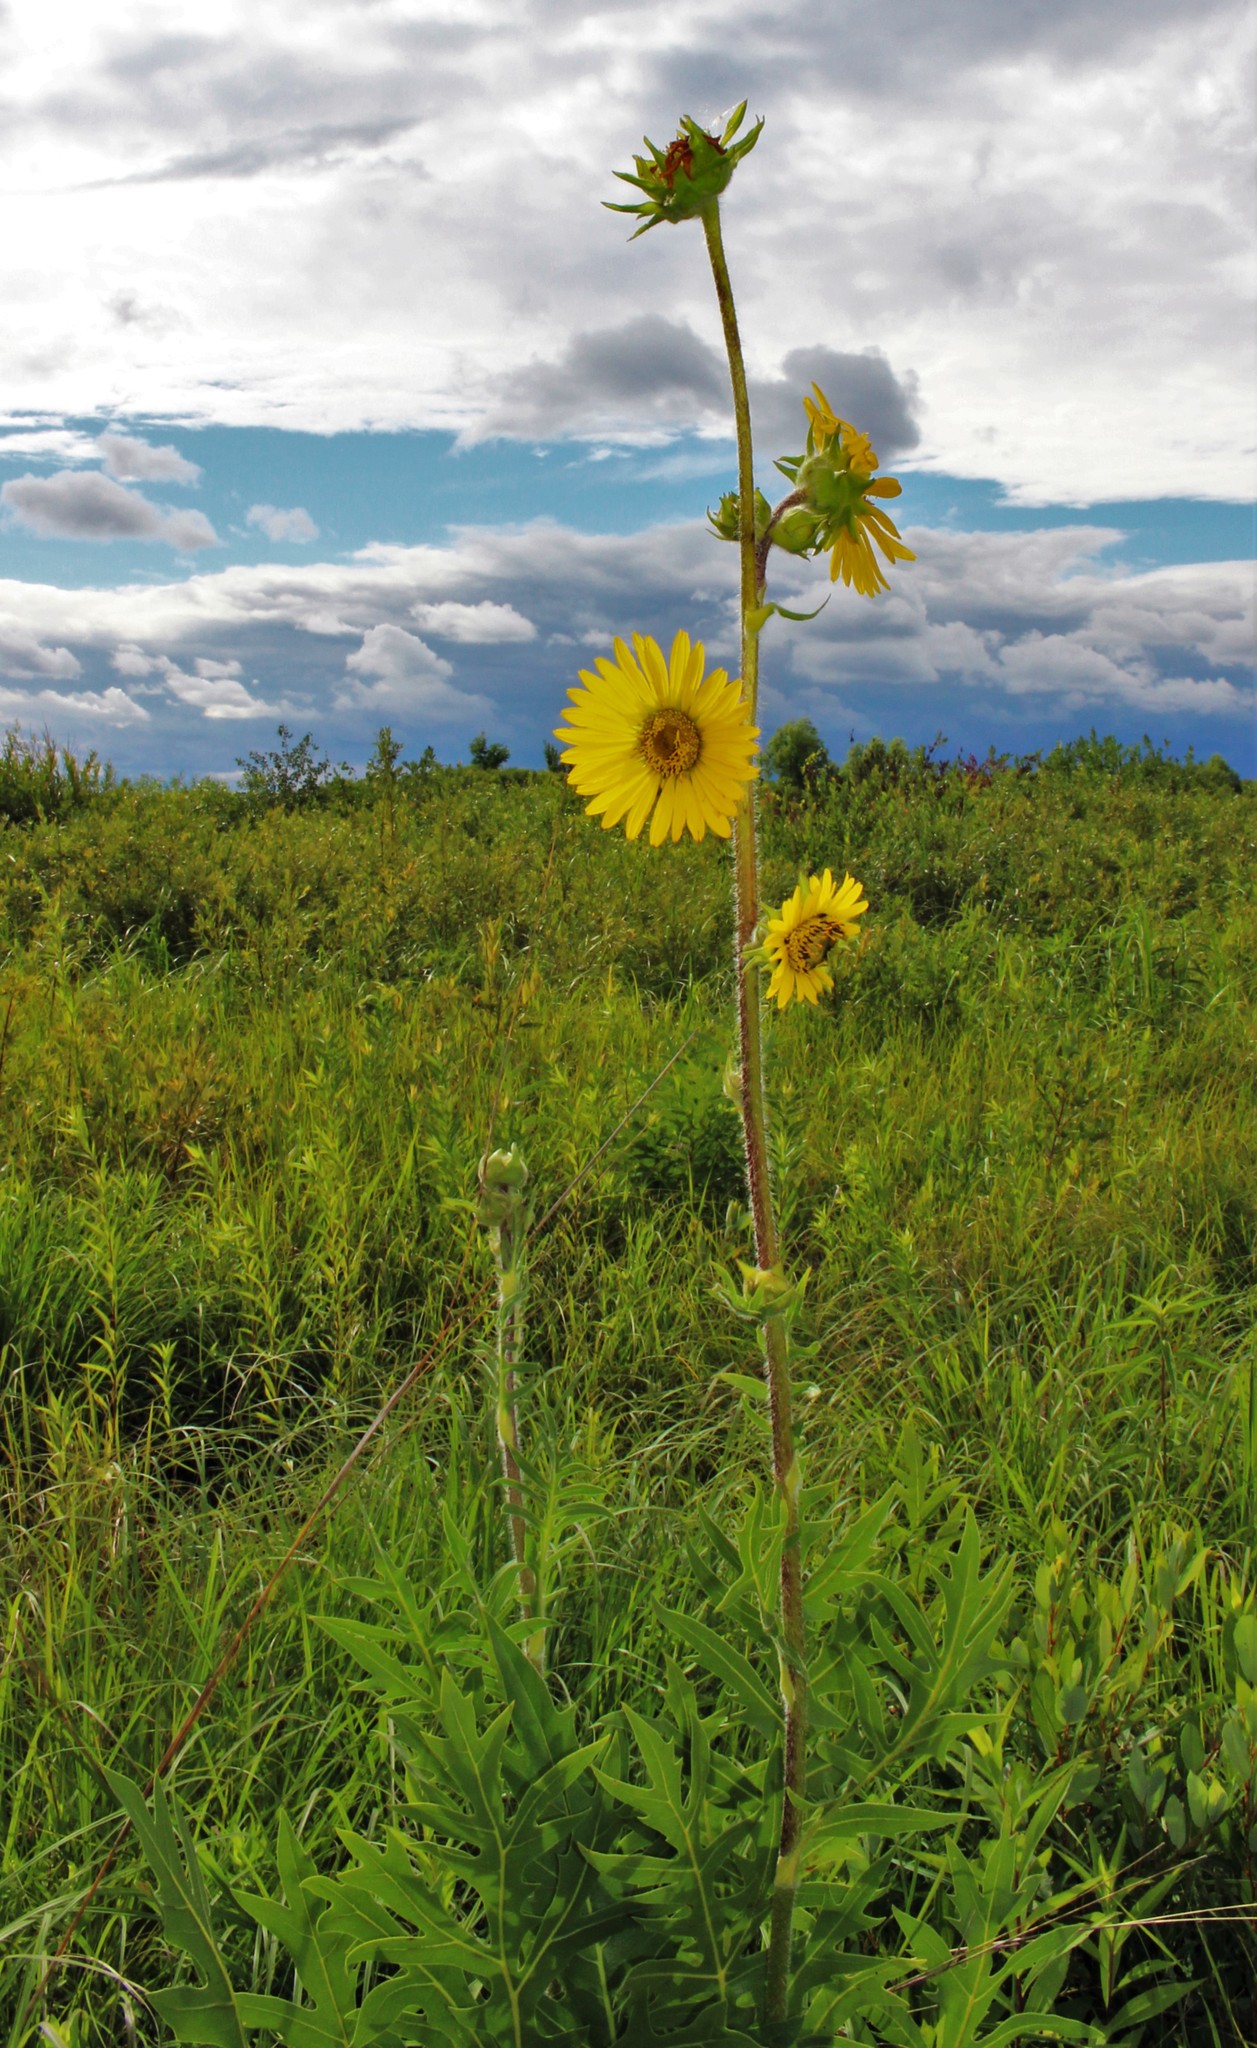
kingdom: Plantae
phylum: Tracheophyta
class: Magnoliopsida
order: Asterales
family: Asteraceae
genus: Silphium
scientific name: Silphium laciniatum
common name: Polarplant
